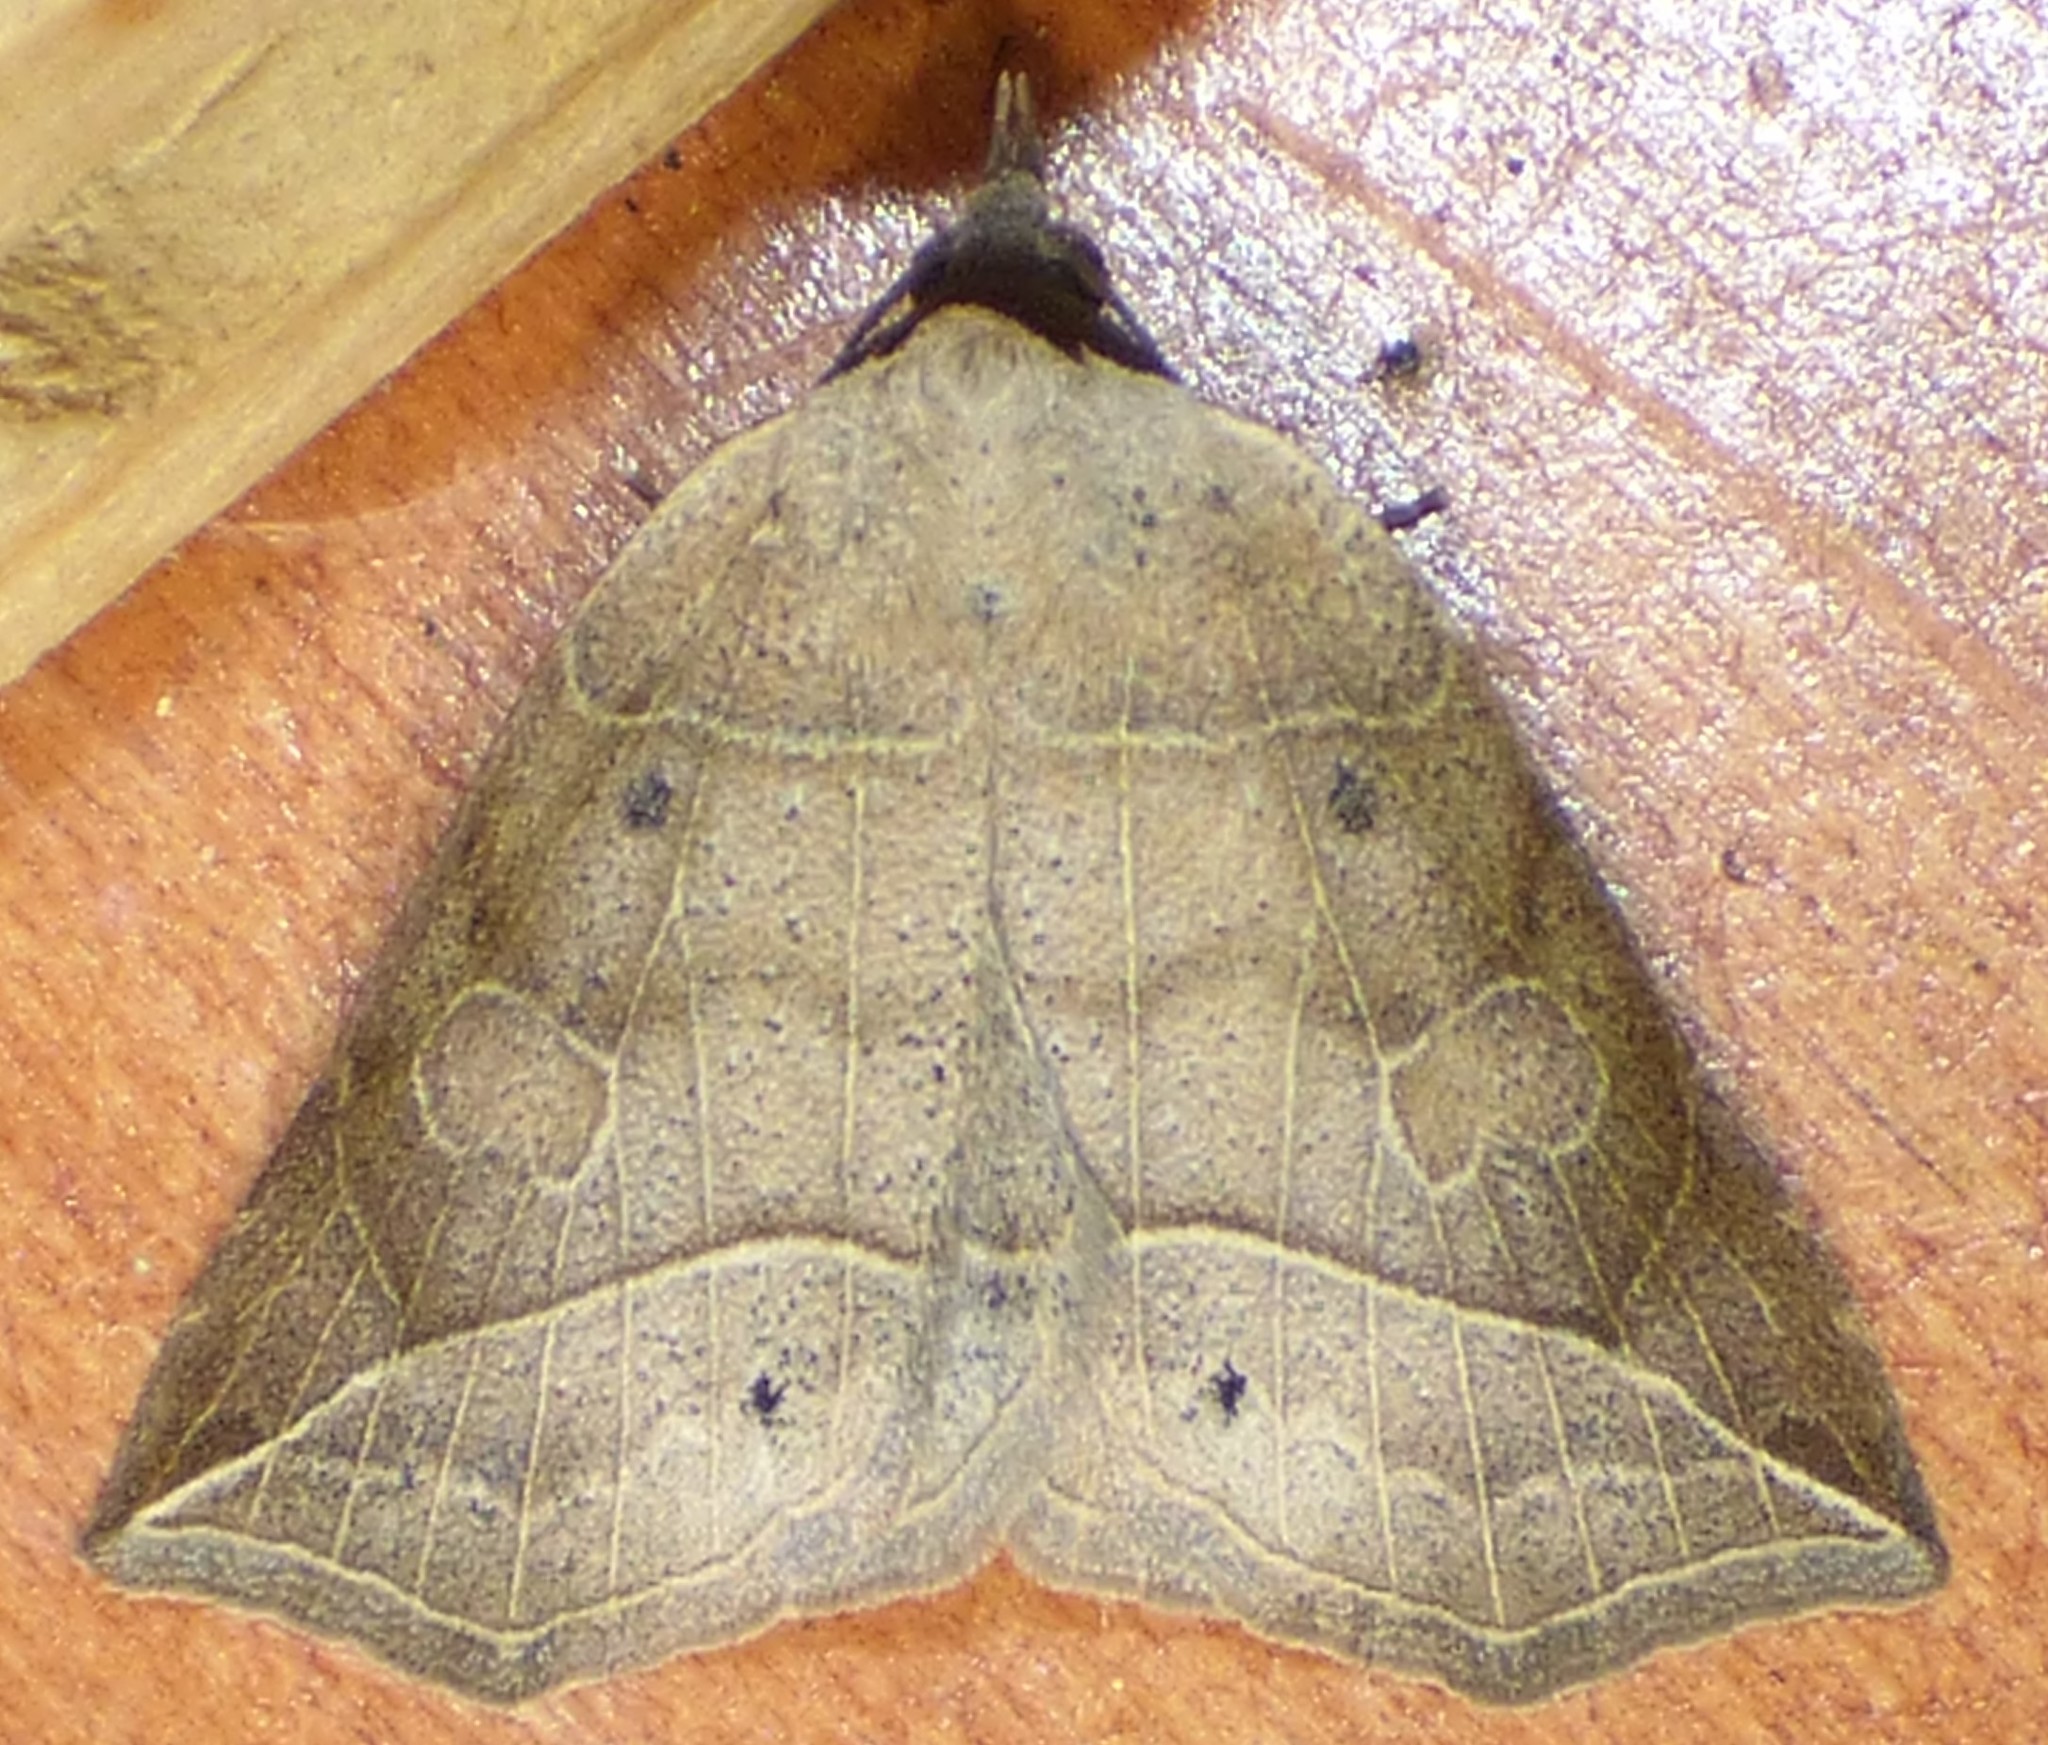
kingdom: Animalia
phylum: Arthropoda
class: Insecta
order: Lepidoptera
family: Erebidae
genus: Isogona
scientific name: Isogona tenuis
